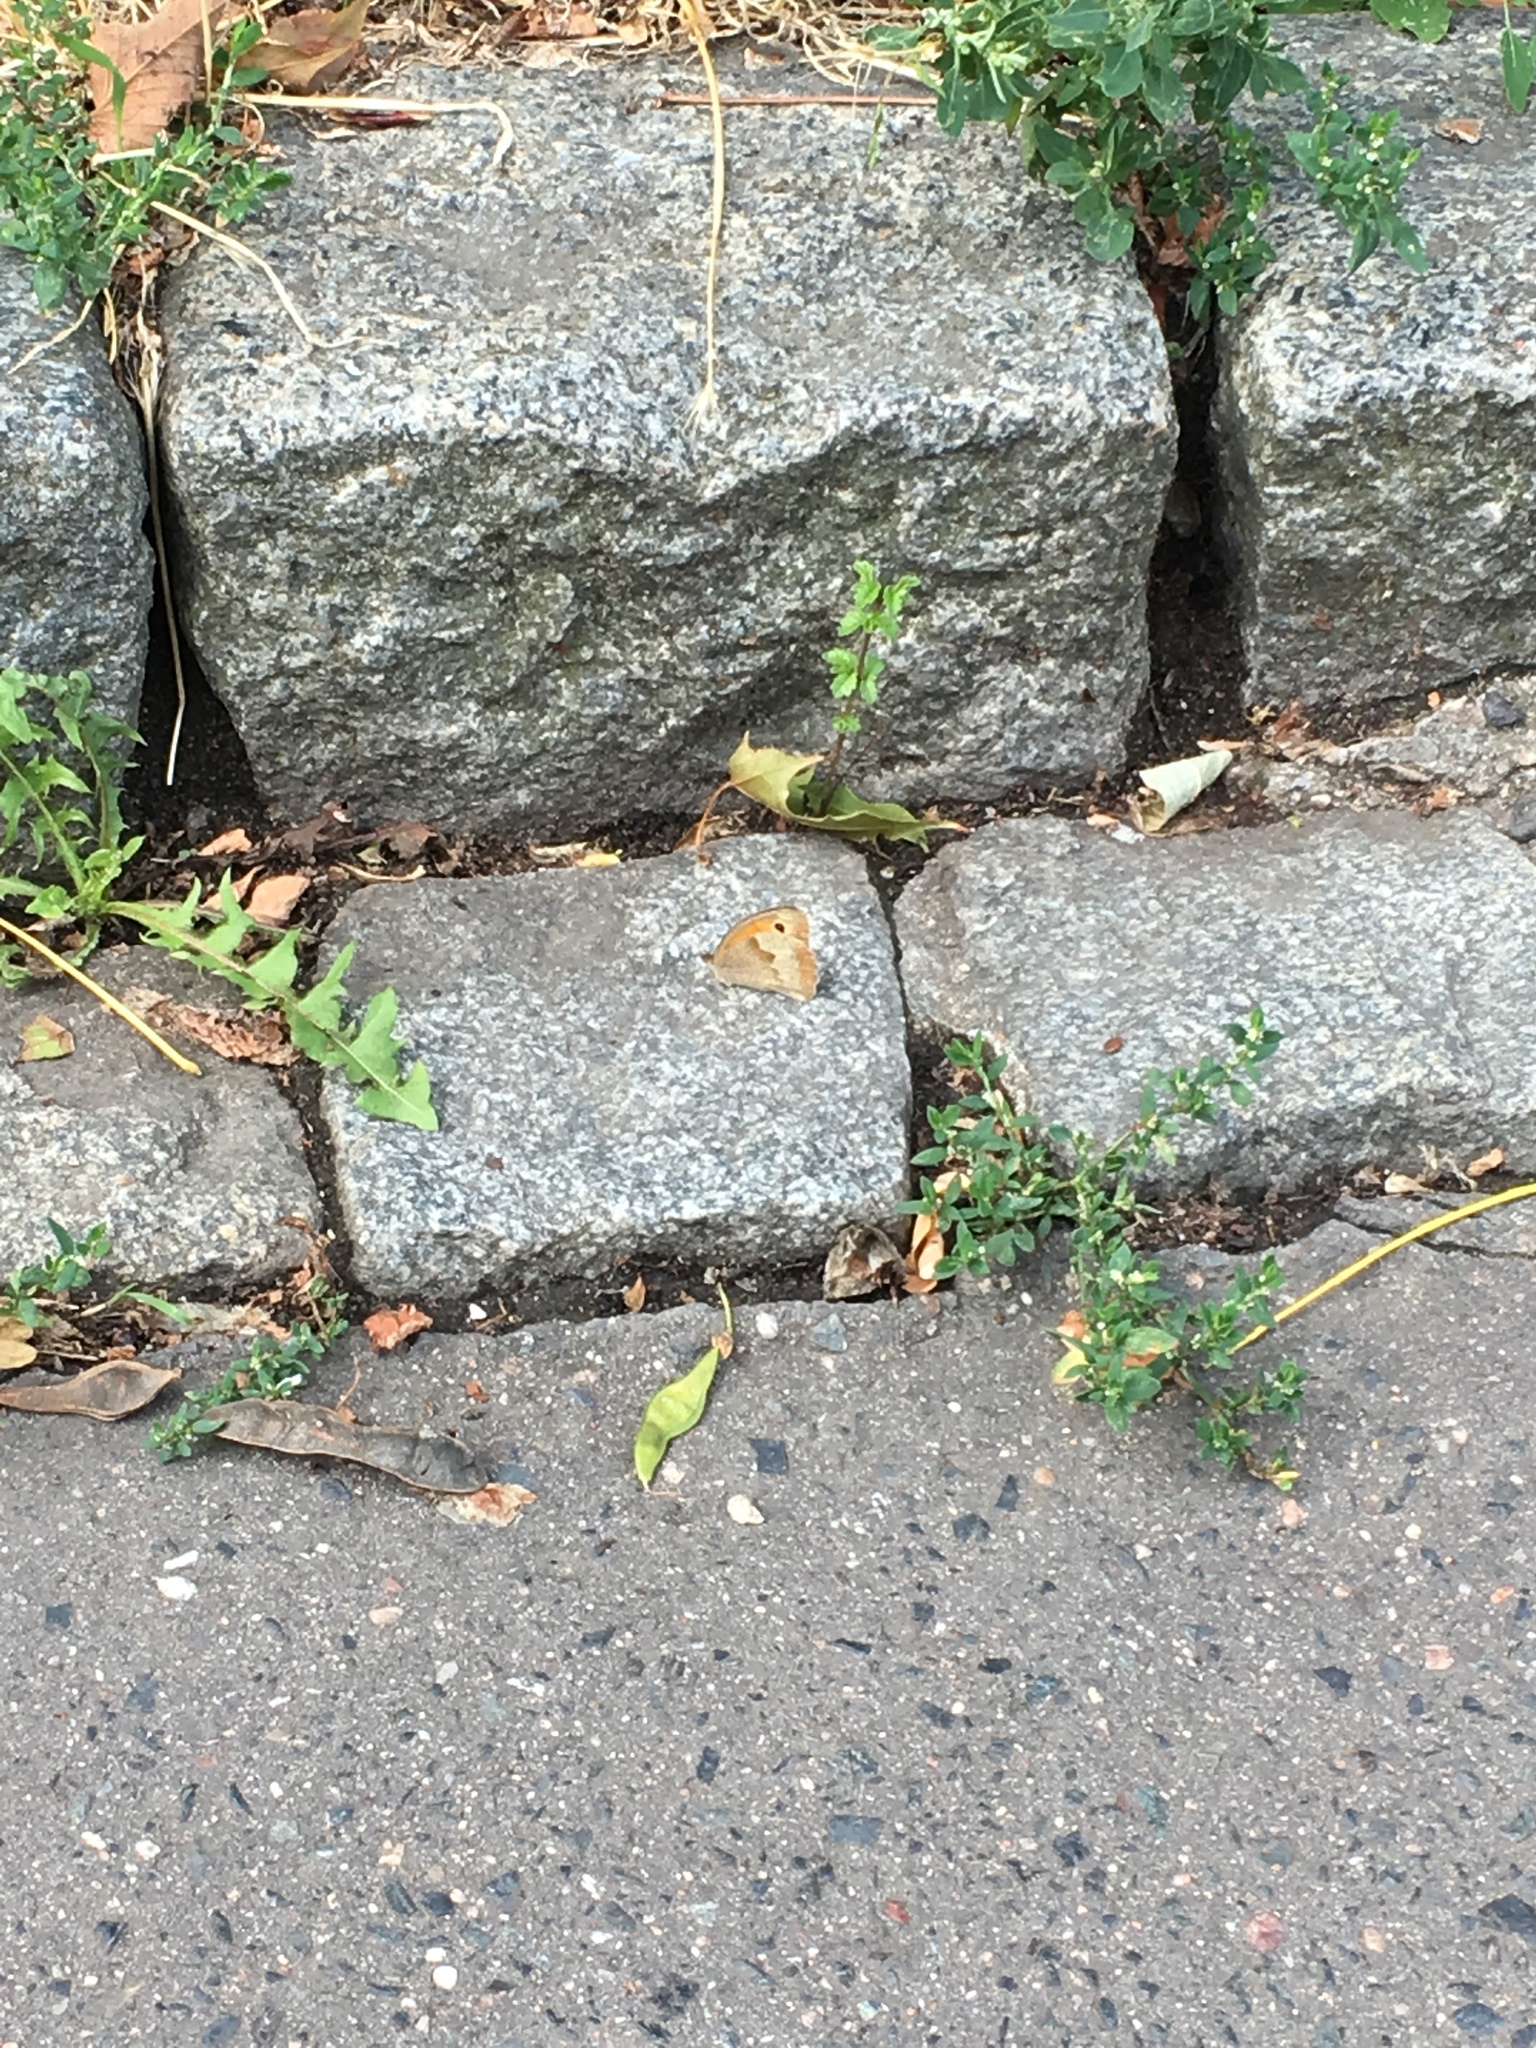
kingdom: Animalia
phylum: Arthropoda
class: Insecta
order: Lepidoptera
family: Nymphalidae
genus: Maniola
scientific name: Maniola jurtina
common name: Meadow brown
